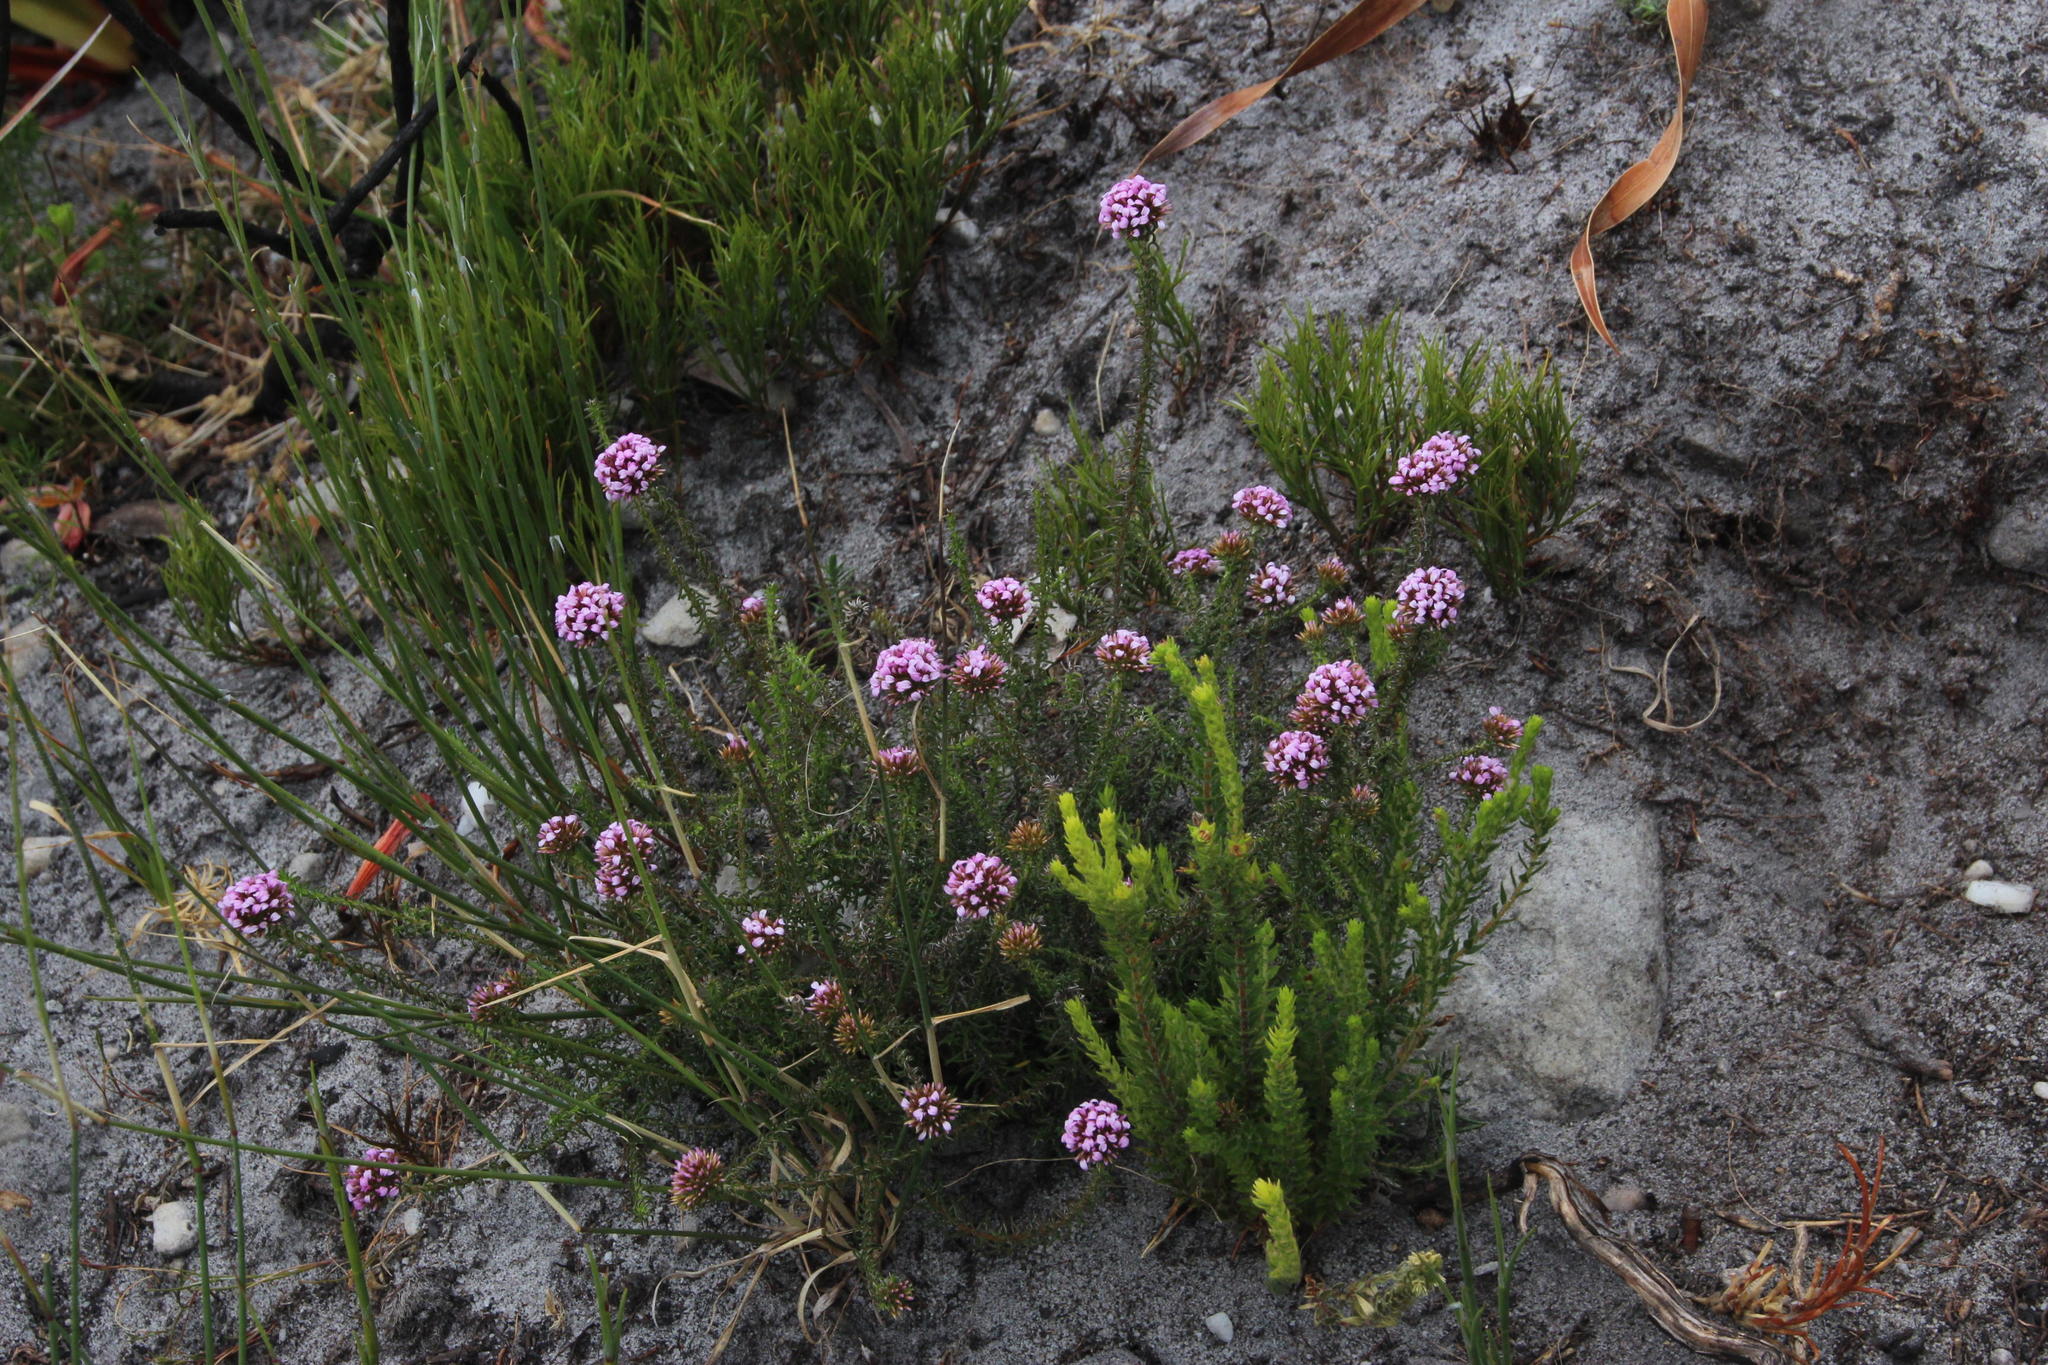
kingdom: Plantae
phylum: Tracheophyta
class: Magnoliopsida
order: Asterales
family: Asteraceae
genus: Disparago
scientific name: Disparago ericoides
